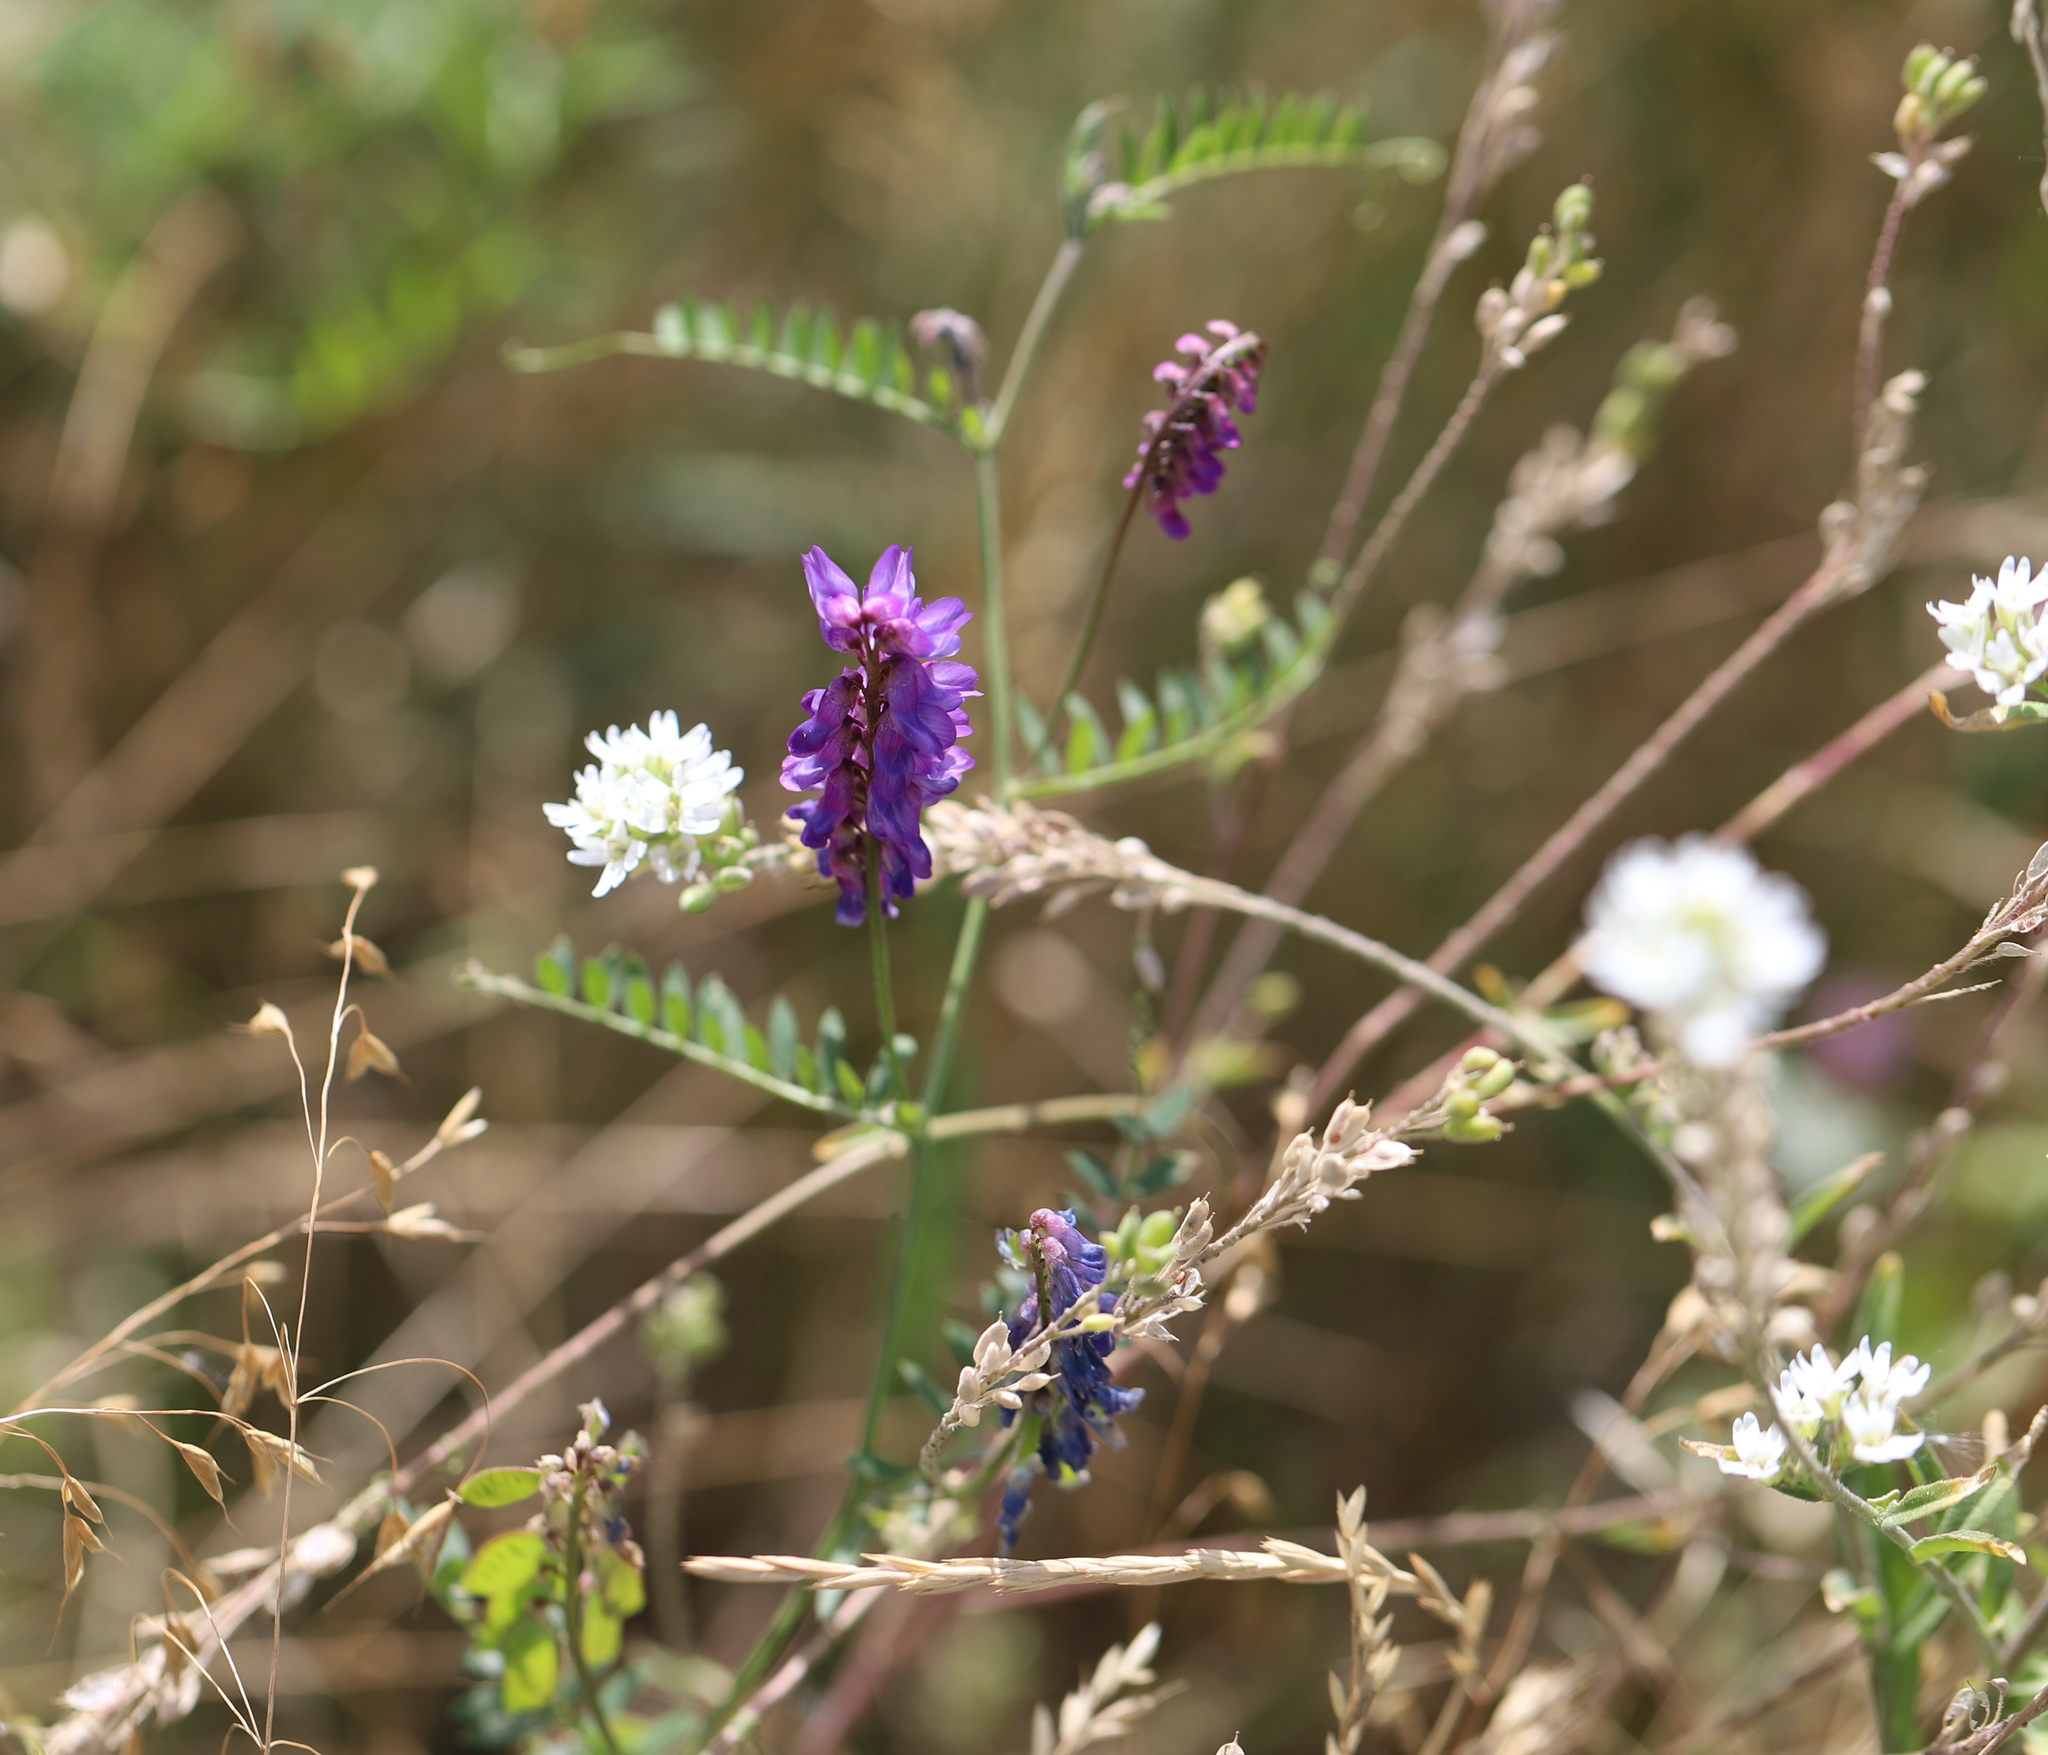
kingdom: Plantae
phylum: Tracheophyta
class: Magnoliopsida
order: Fabales
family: Fabaceae
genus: Vicia
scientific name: Vicia cracca
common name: Bird vetch
